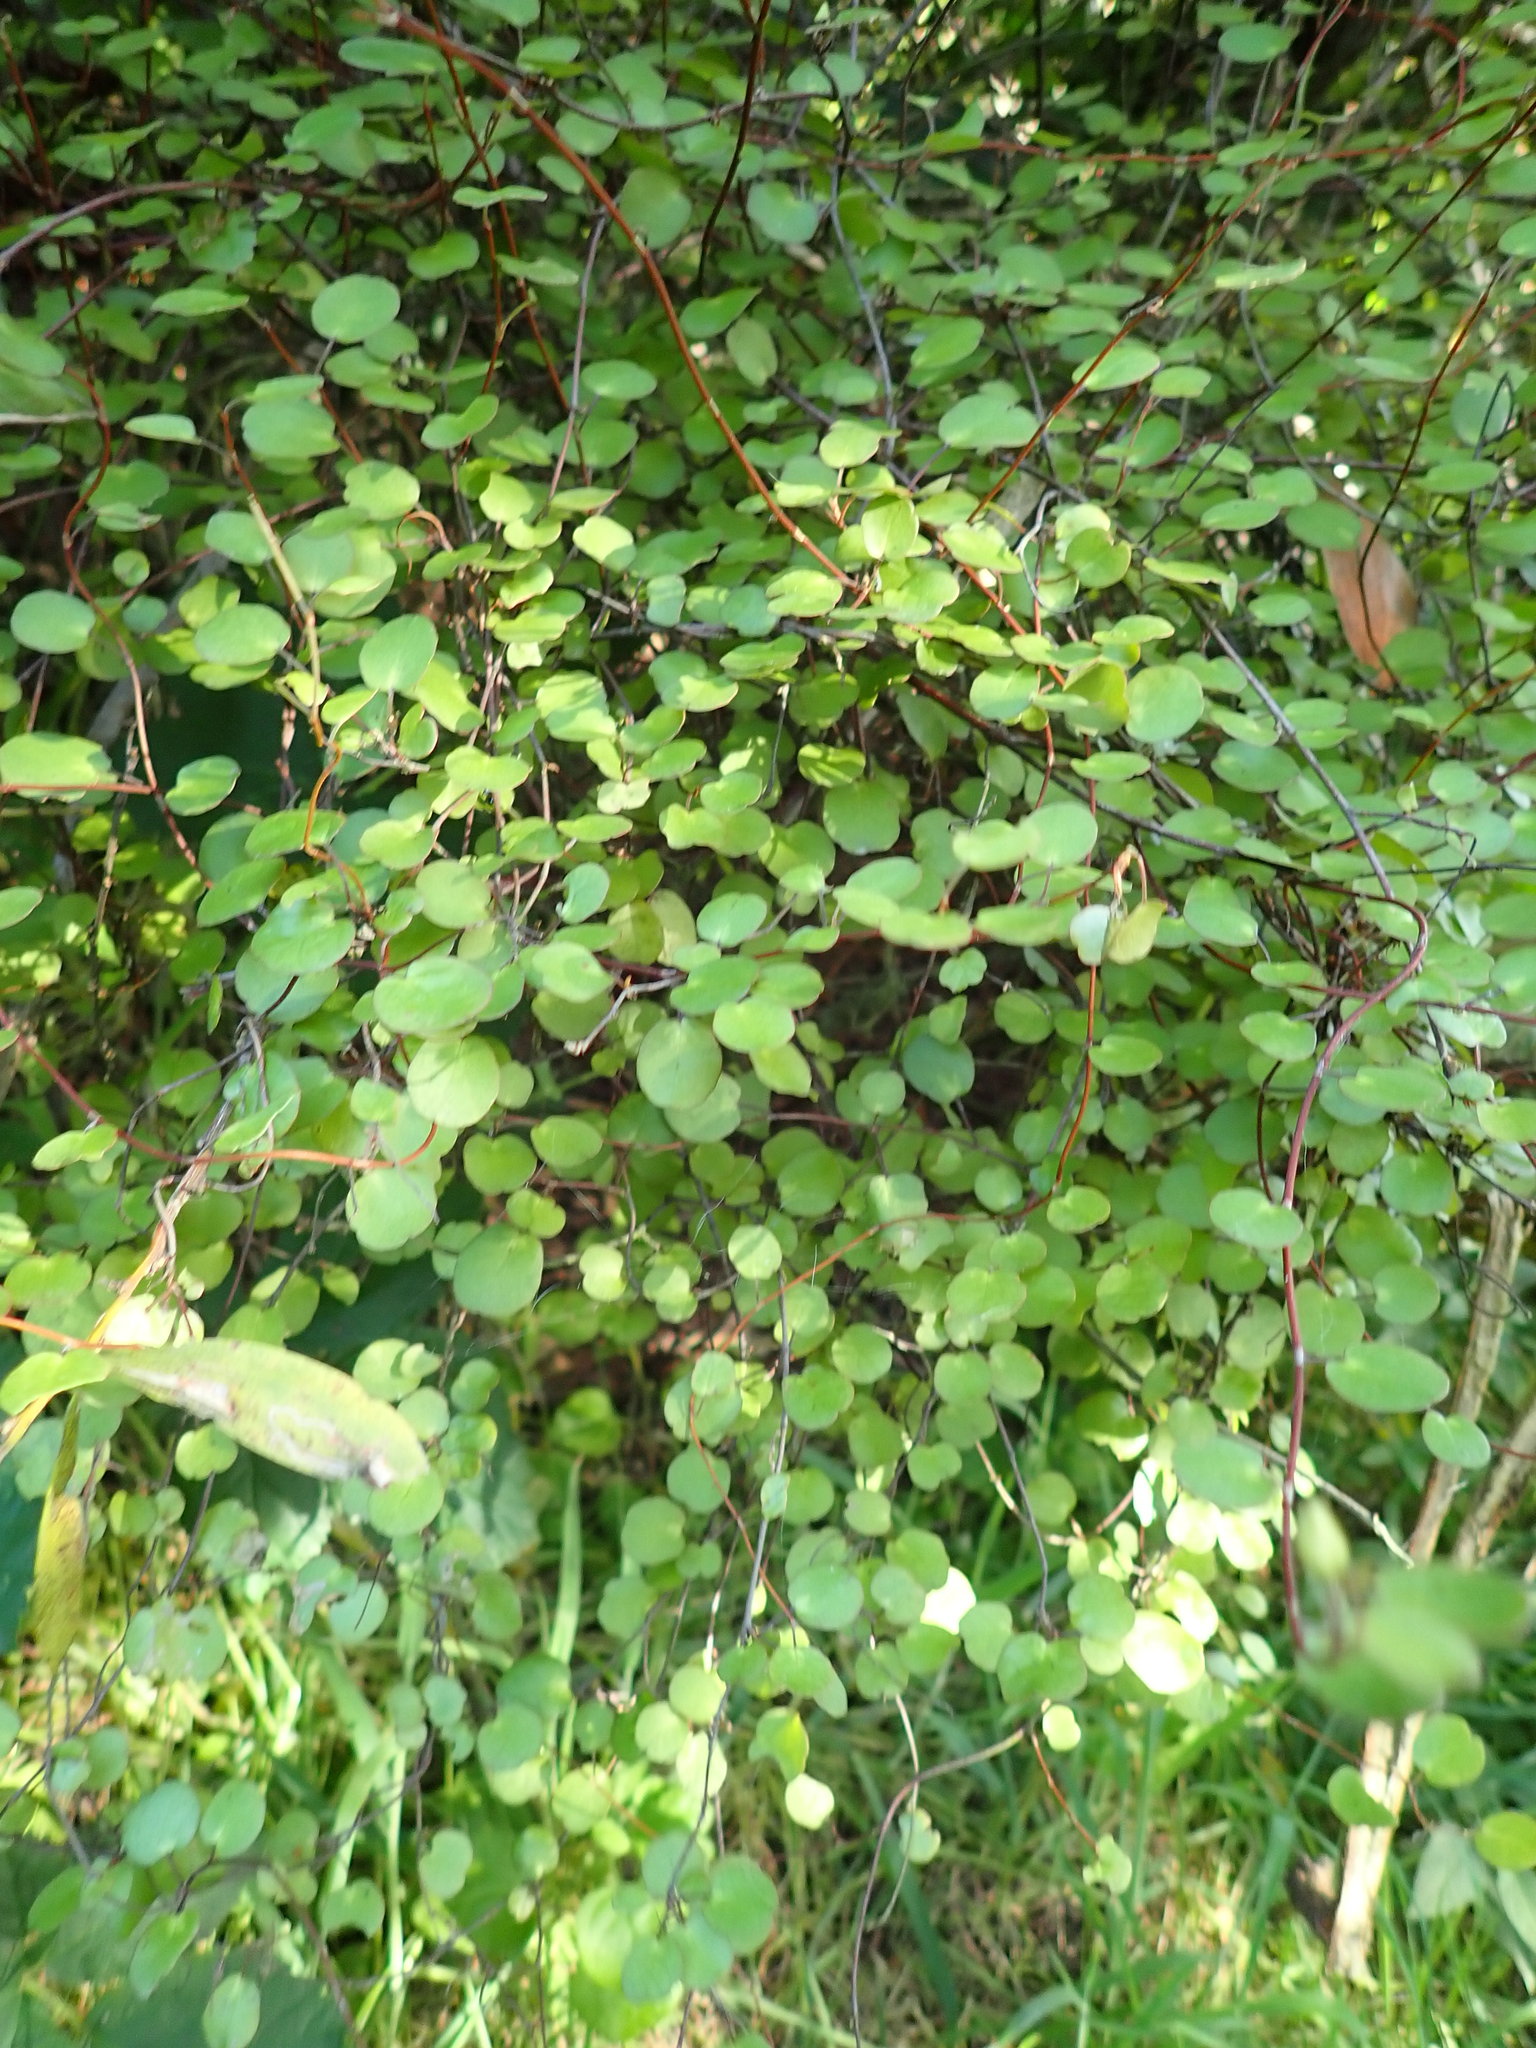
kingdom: Plantae
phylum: Tracheophyta
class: Magnoliopsida
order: Caryophyllales
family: Polygonaceae
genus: Muehlenbeckia
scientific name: Muehlenbeckia complexa
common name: Wireplant
